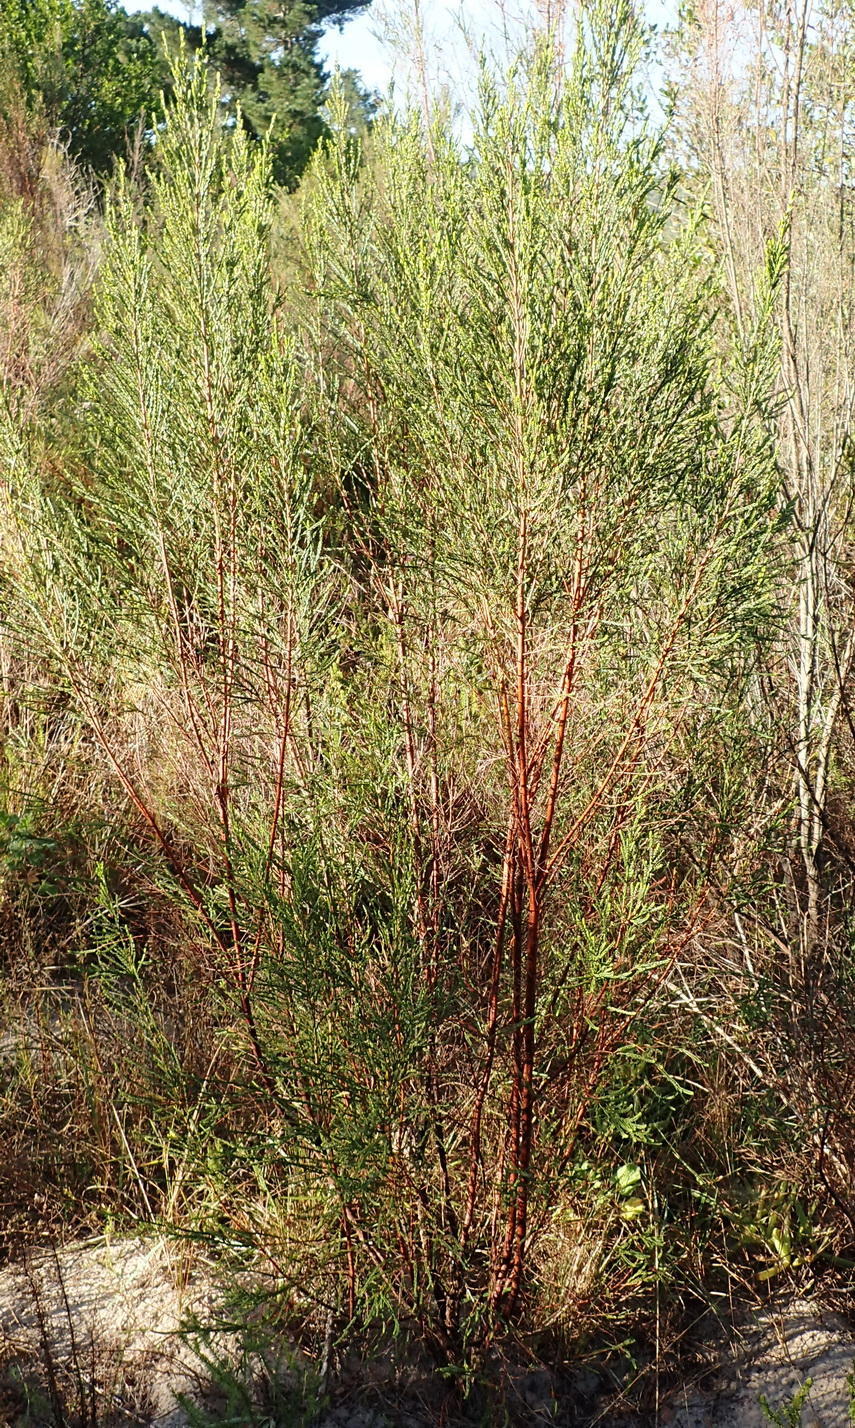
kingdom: Plantae
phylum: Tracheophyta
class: Magnoliopsida
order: Malvales
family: Thymelaeaceae
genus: Passerina
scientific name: Passerina corymbosa
